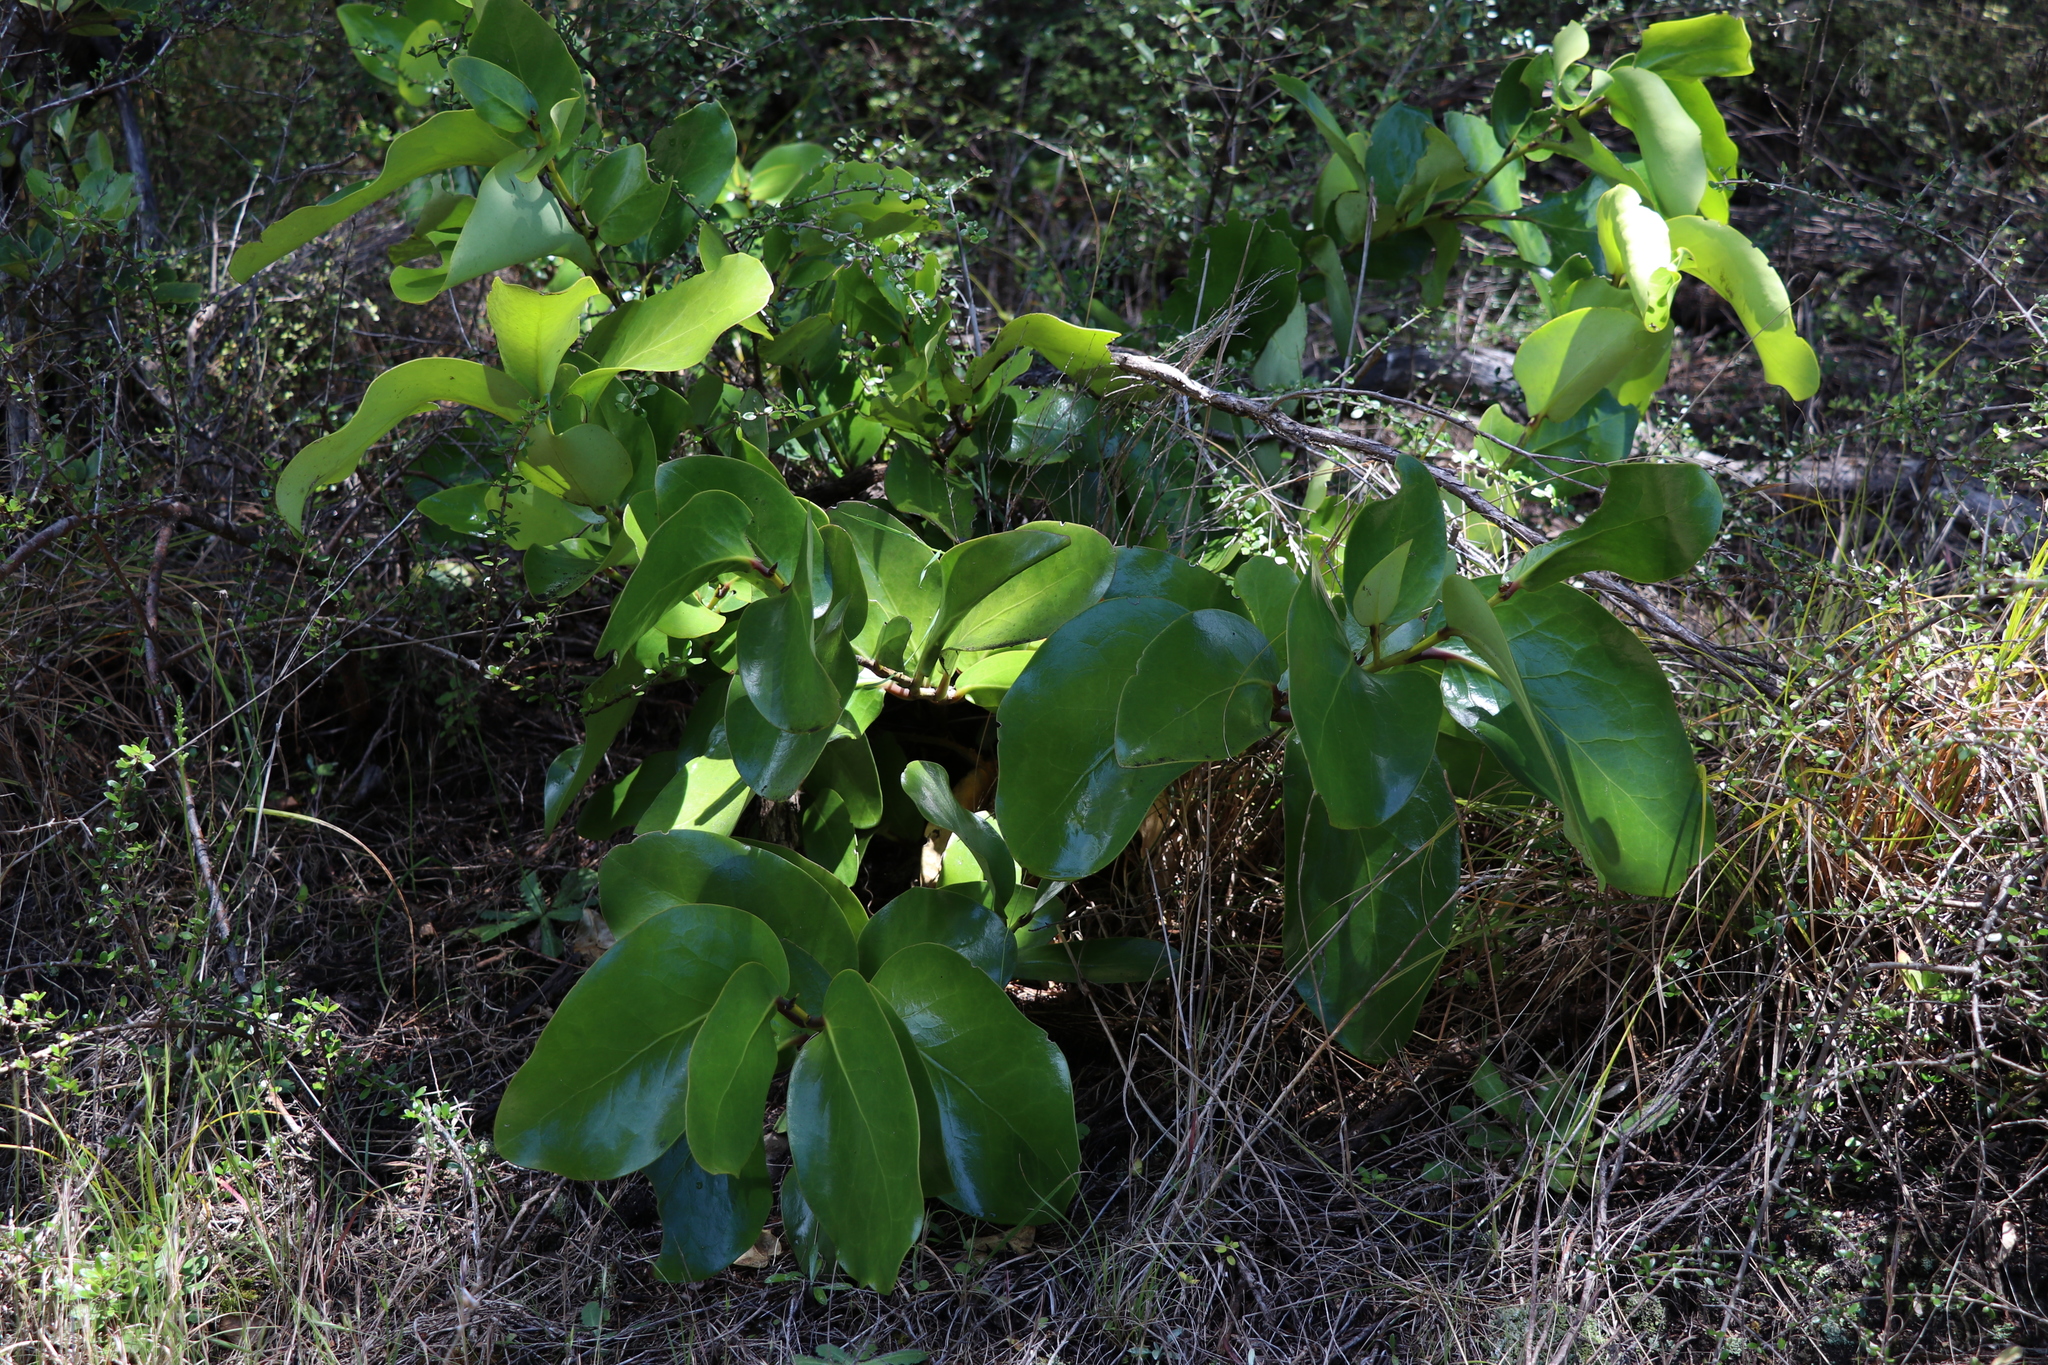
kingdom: Plantae
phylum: Tracheophyta
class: Magnoliopsida
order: Apiales
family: Griseliniaceae
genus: Griselinia
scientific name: Griselinia lucida
